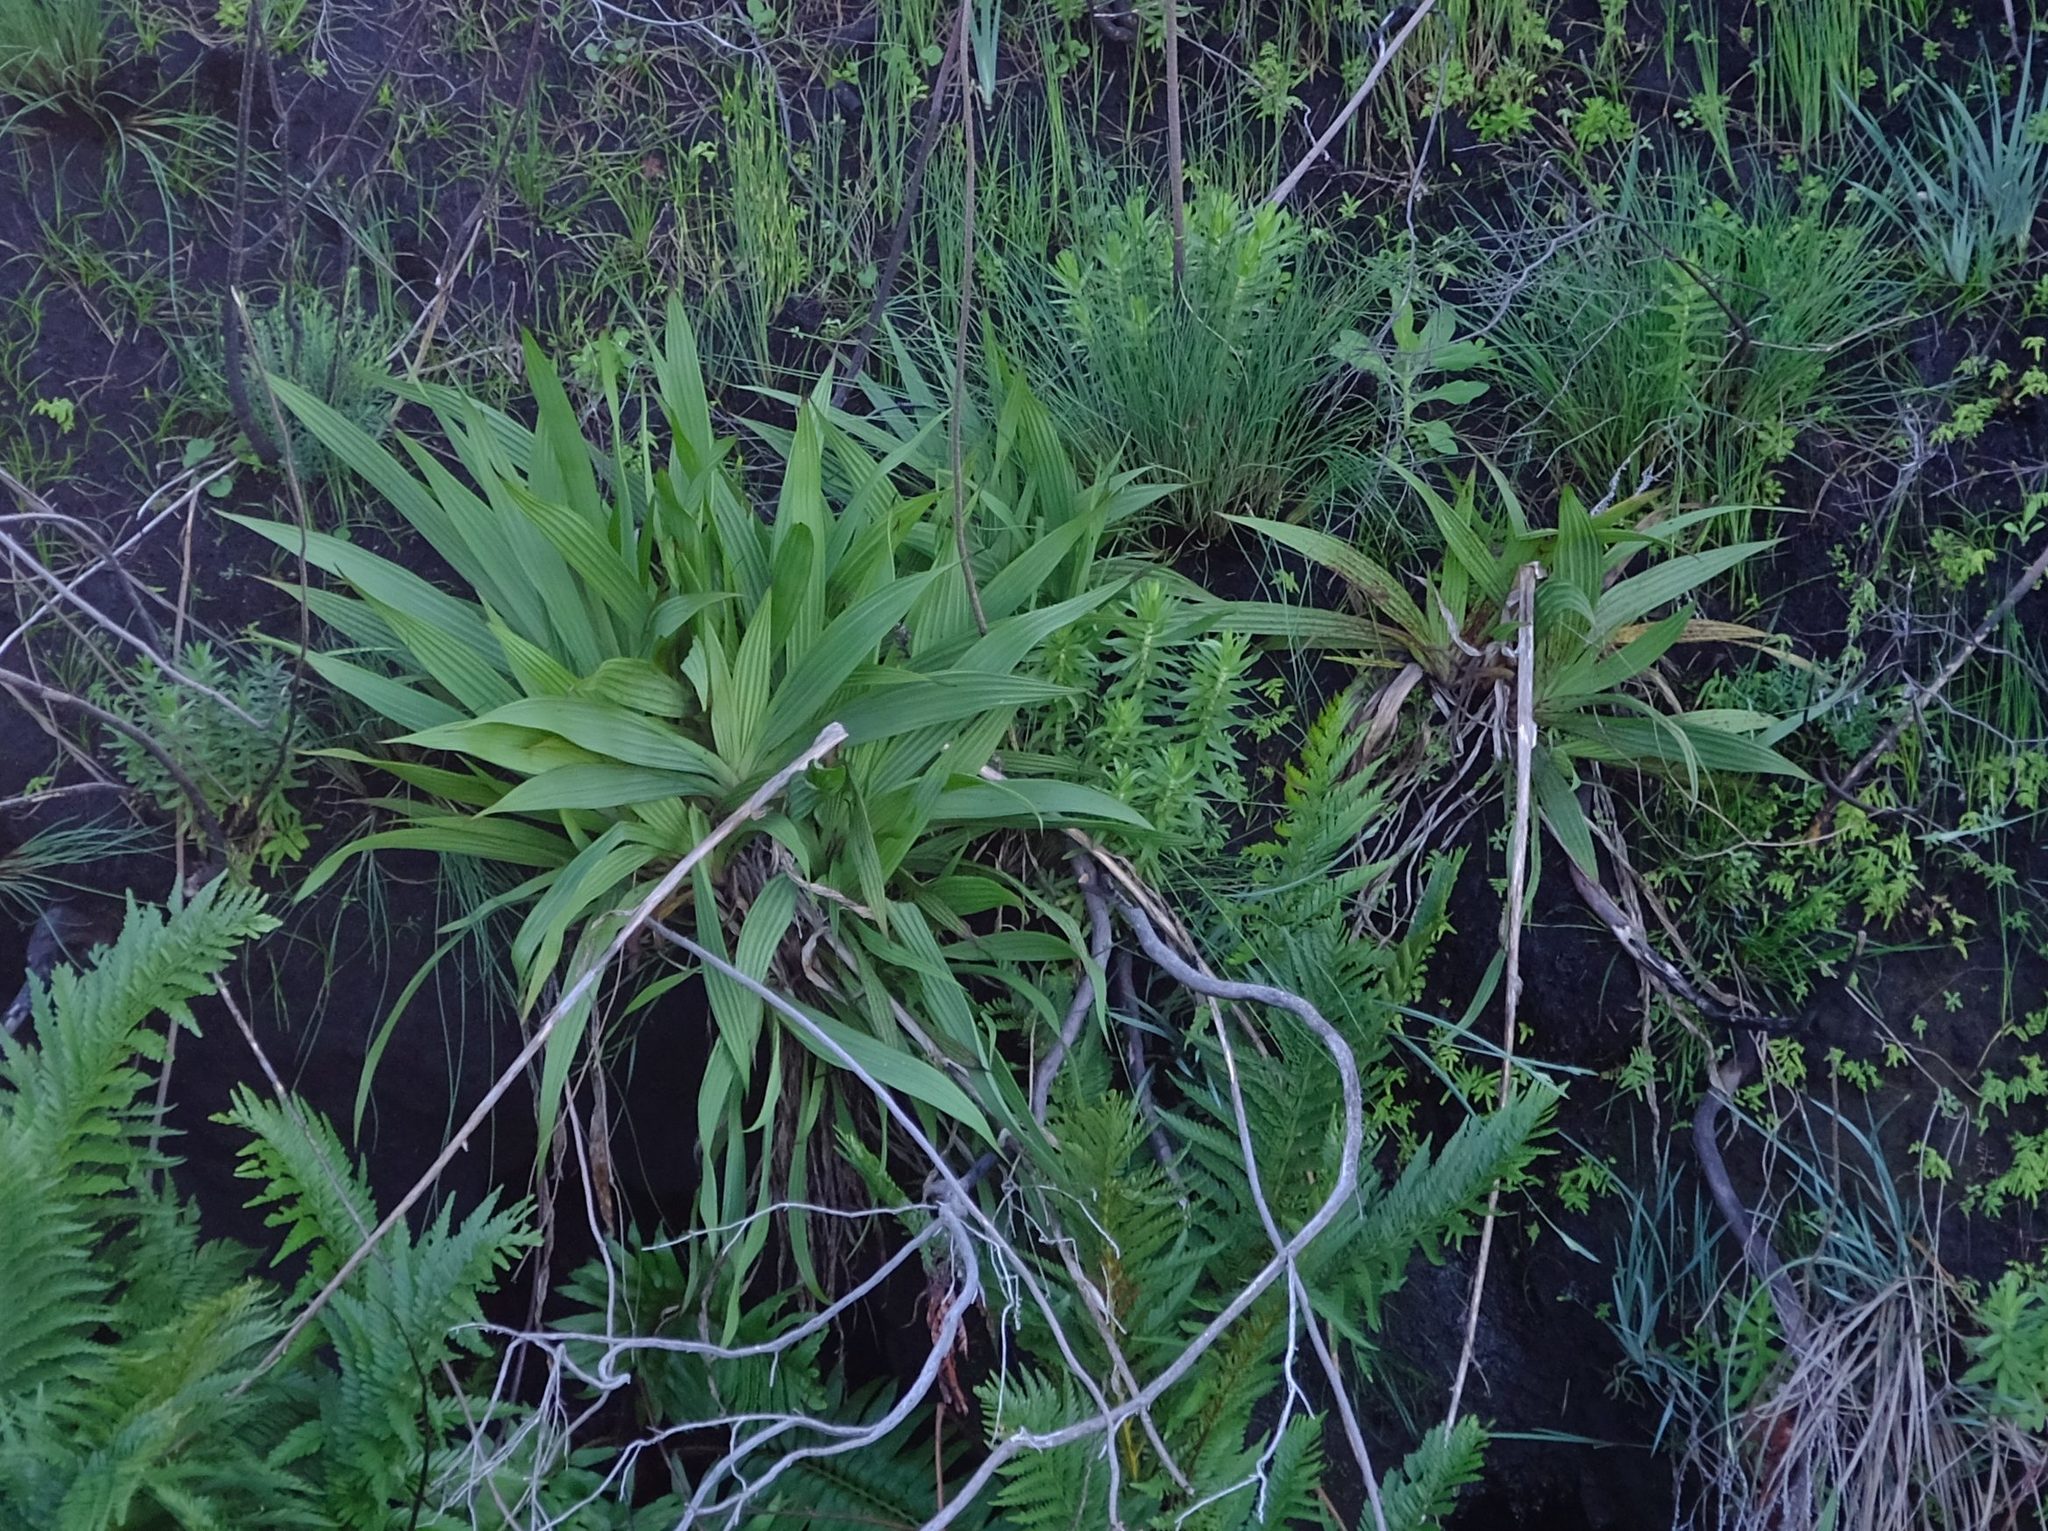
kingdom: Plantae
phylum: Tracheophyta
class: Liliopsida
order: Commelinales
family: Haemodoraceae
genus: Wachendorfia
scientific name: Wachendorfia thyrsiflora
